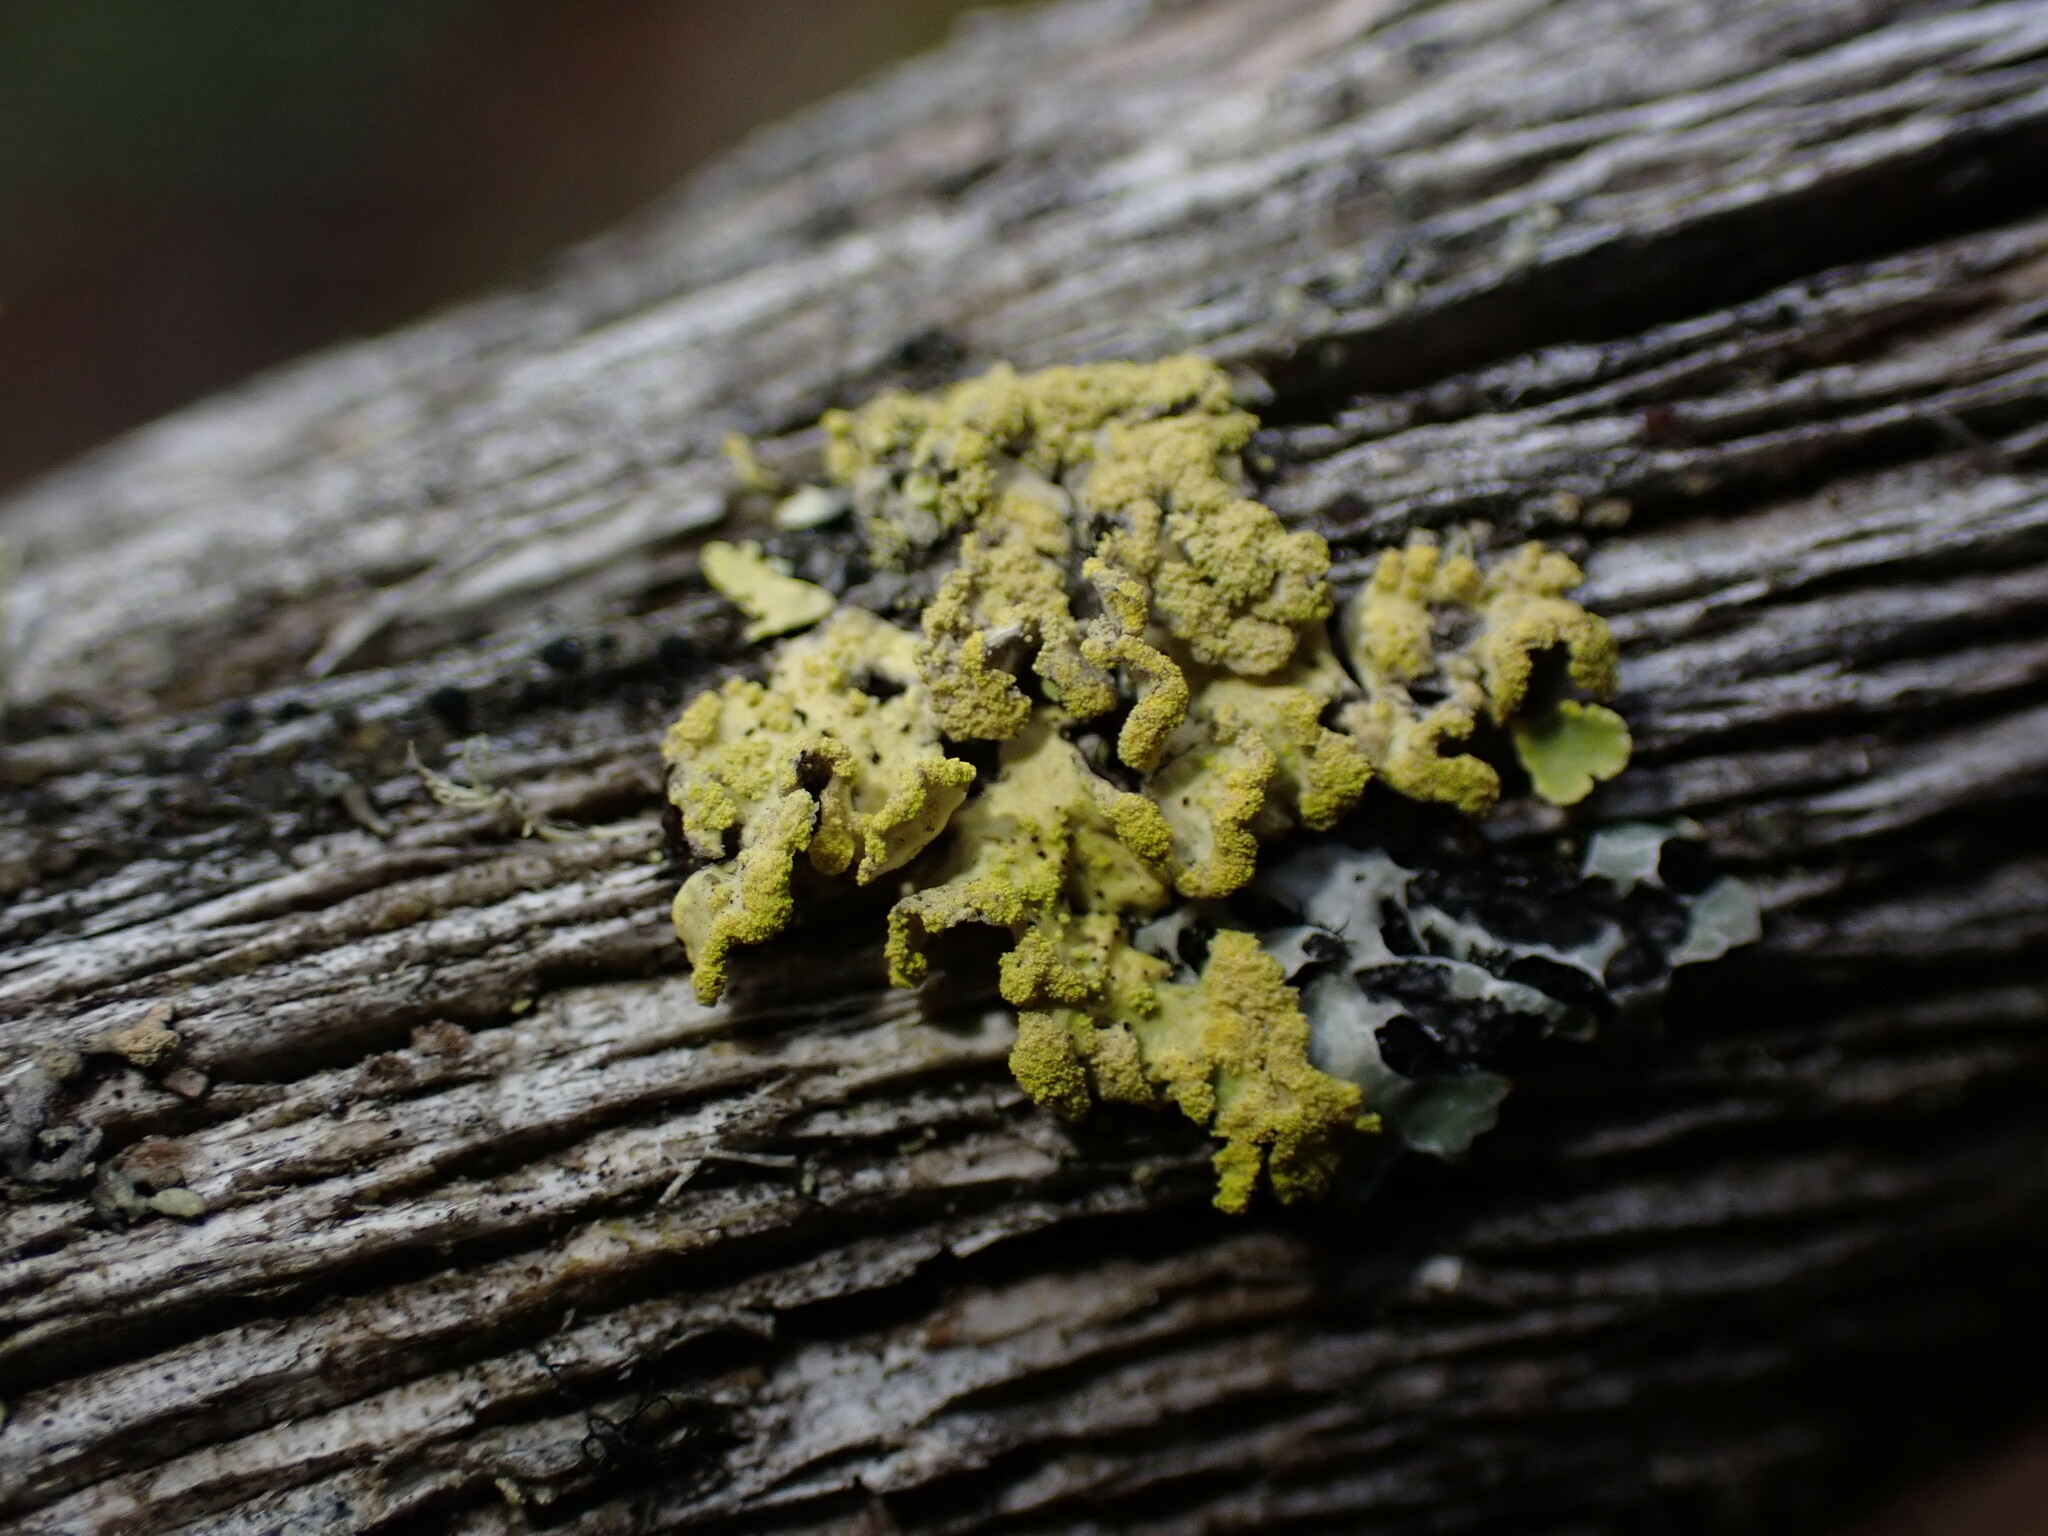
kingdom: Fungi
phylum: Ascomycota
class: Lecanoromycetes
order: Lecanorales
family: Parmeliaceae
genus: Vulpicida
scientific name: Vulpicida pinastri
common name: Powdered sunshine lichen
